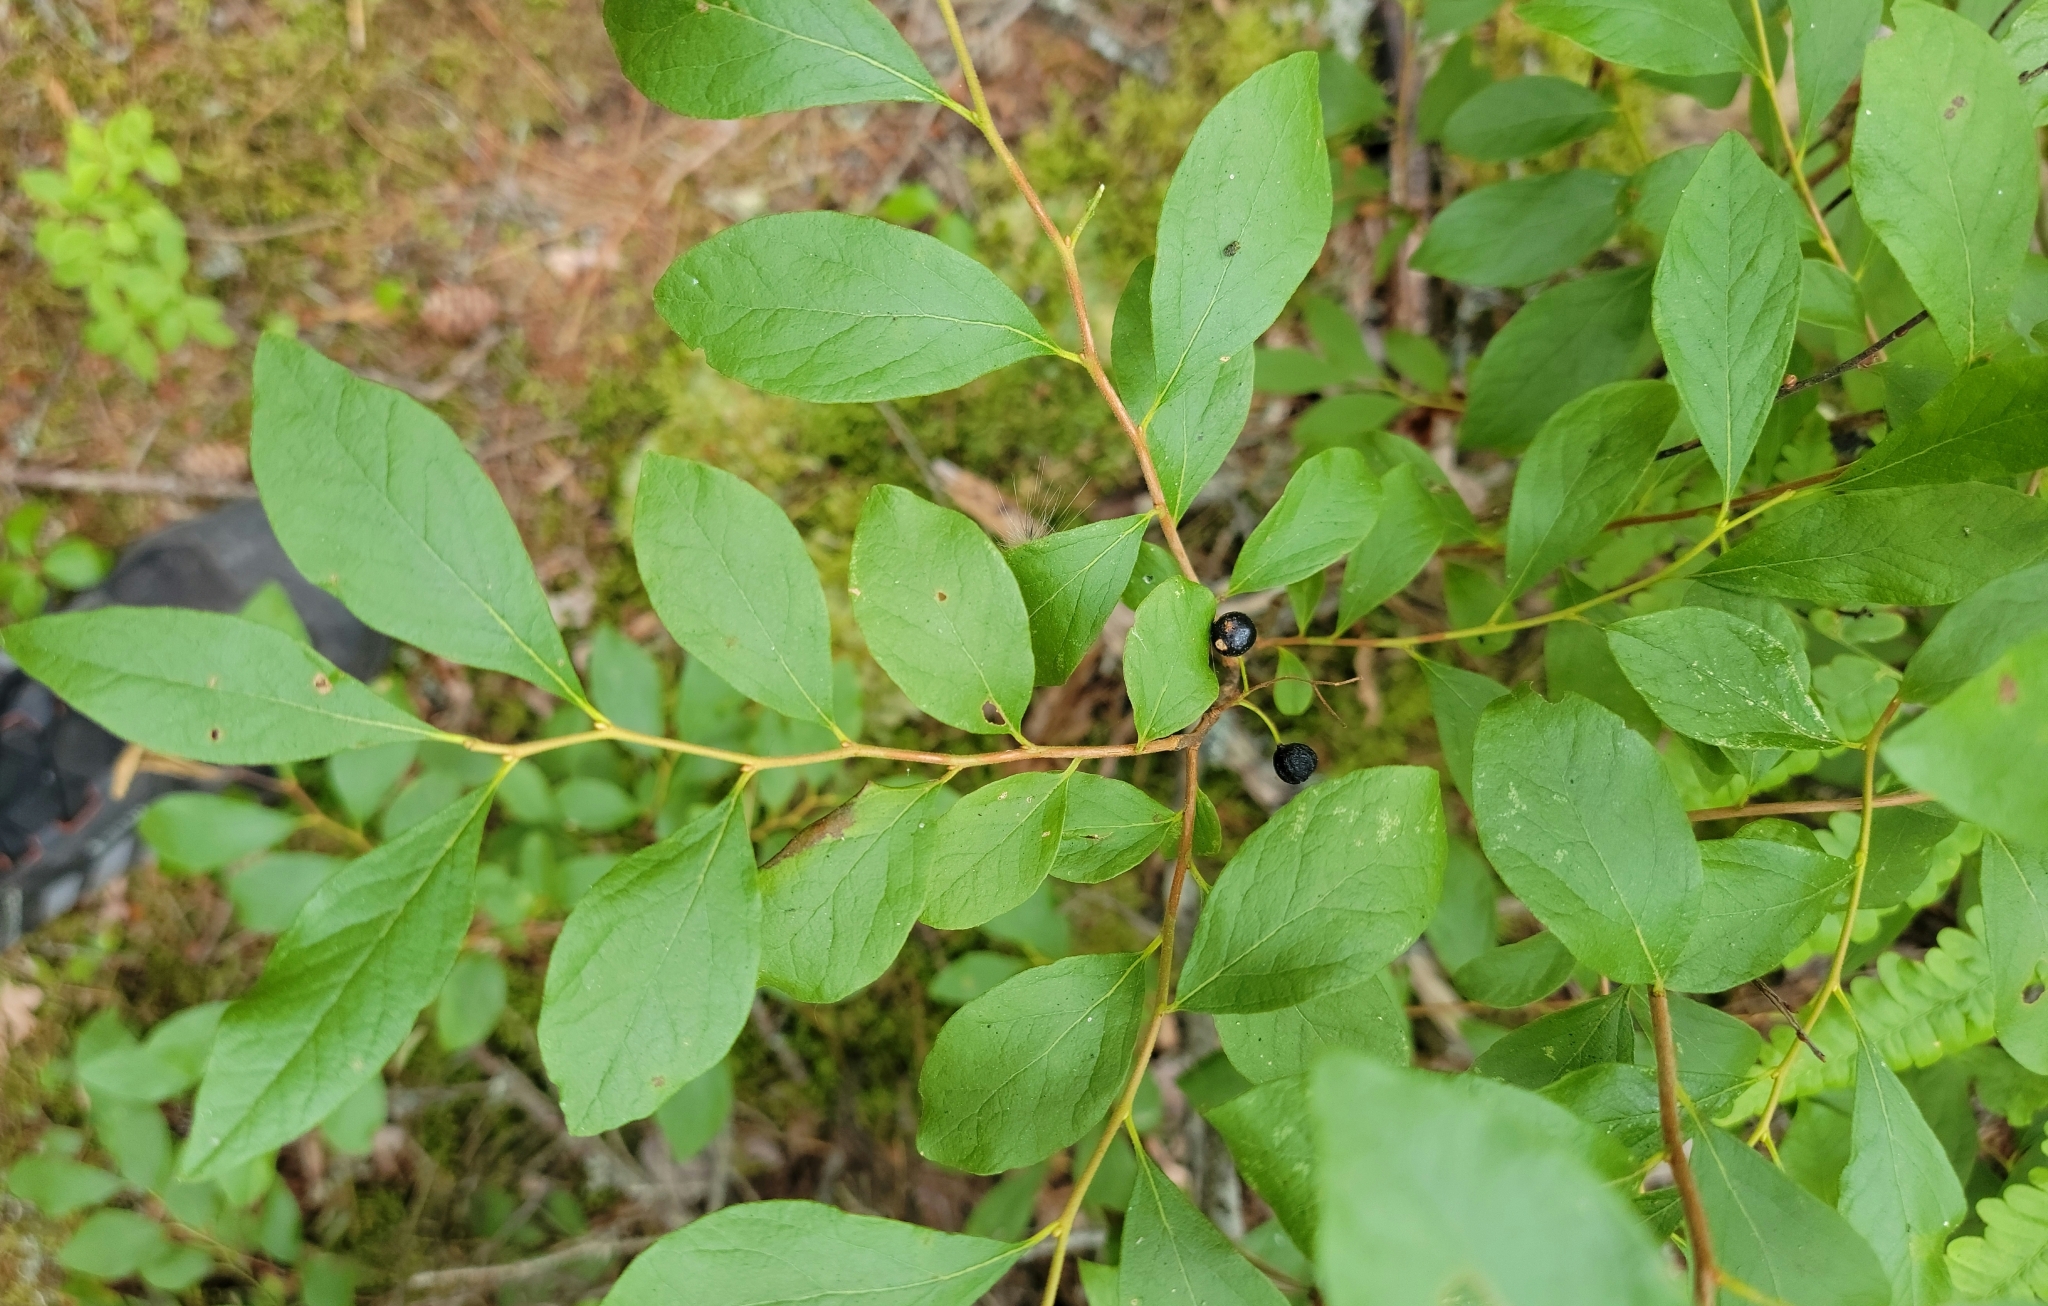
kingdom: Plantae
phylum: Tracheophyta
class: Magnoliopsida
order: Ericales
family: Ericaceae
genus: Gaylussacia
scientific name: Gaylussacia baccata
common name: Black huckleberry
